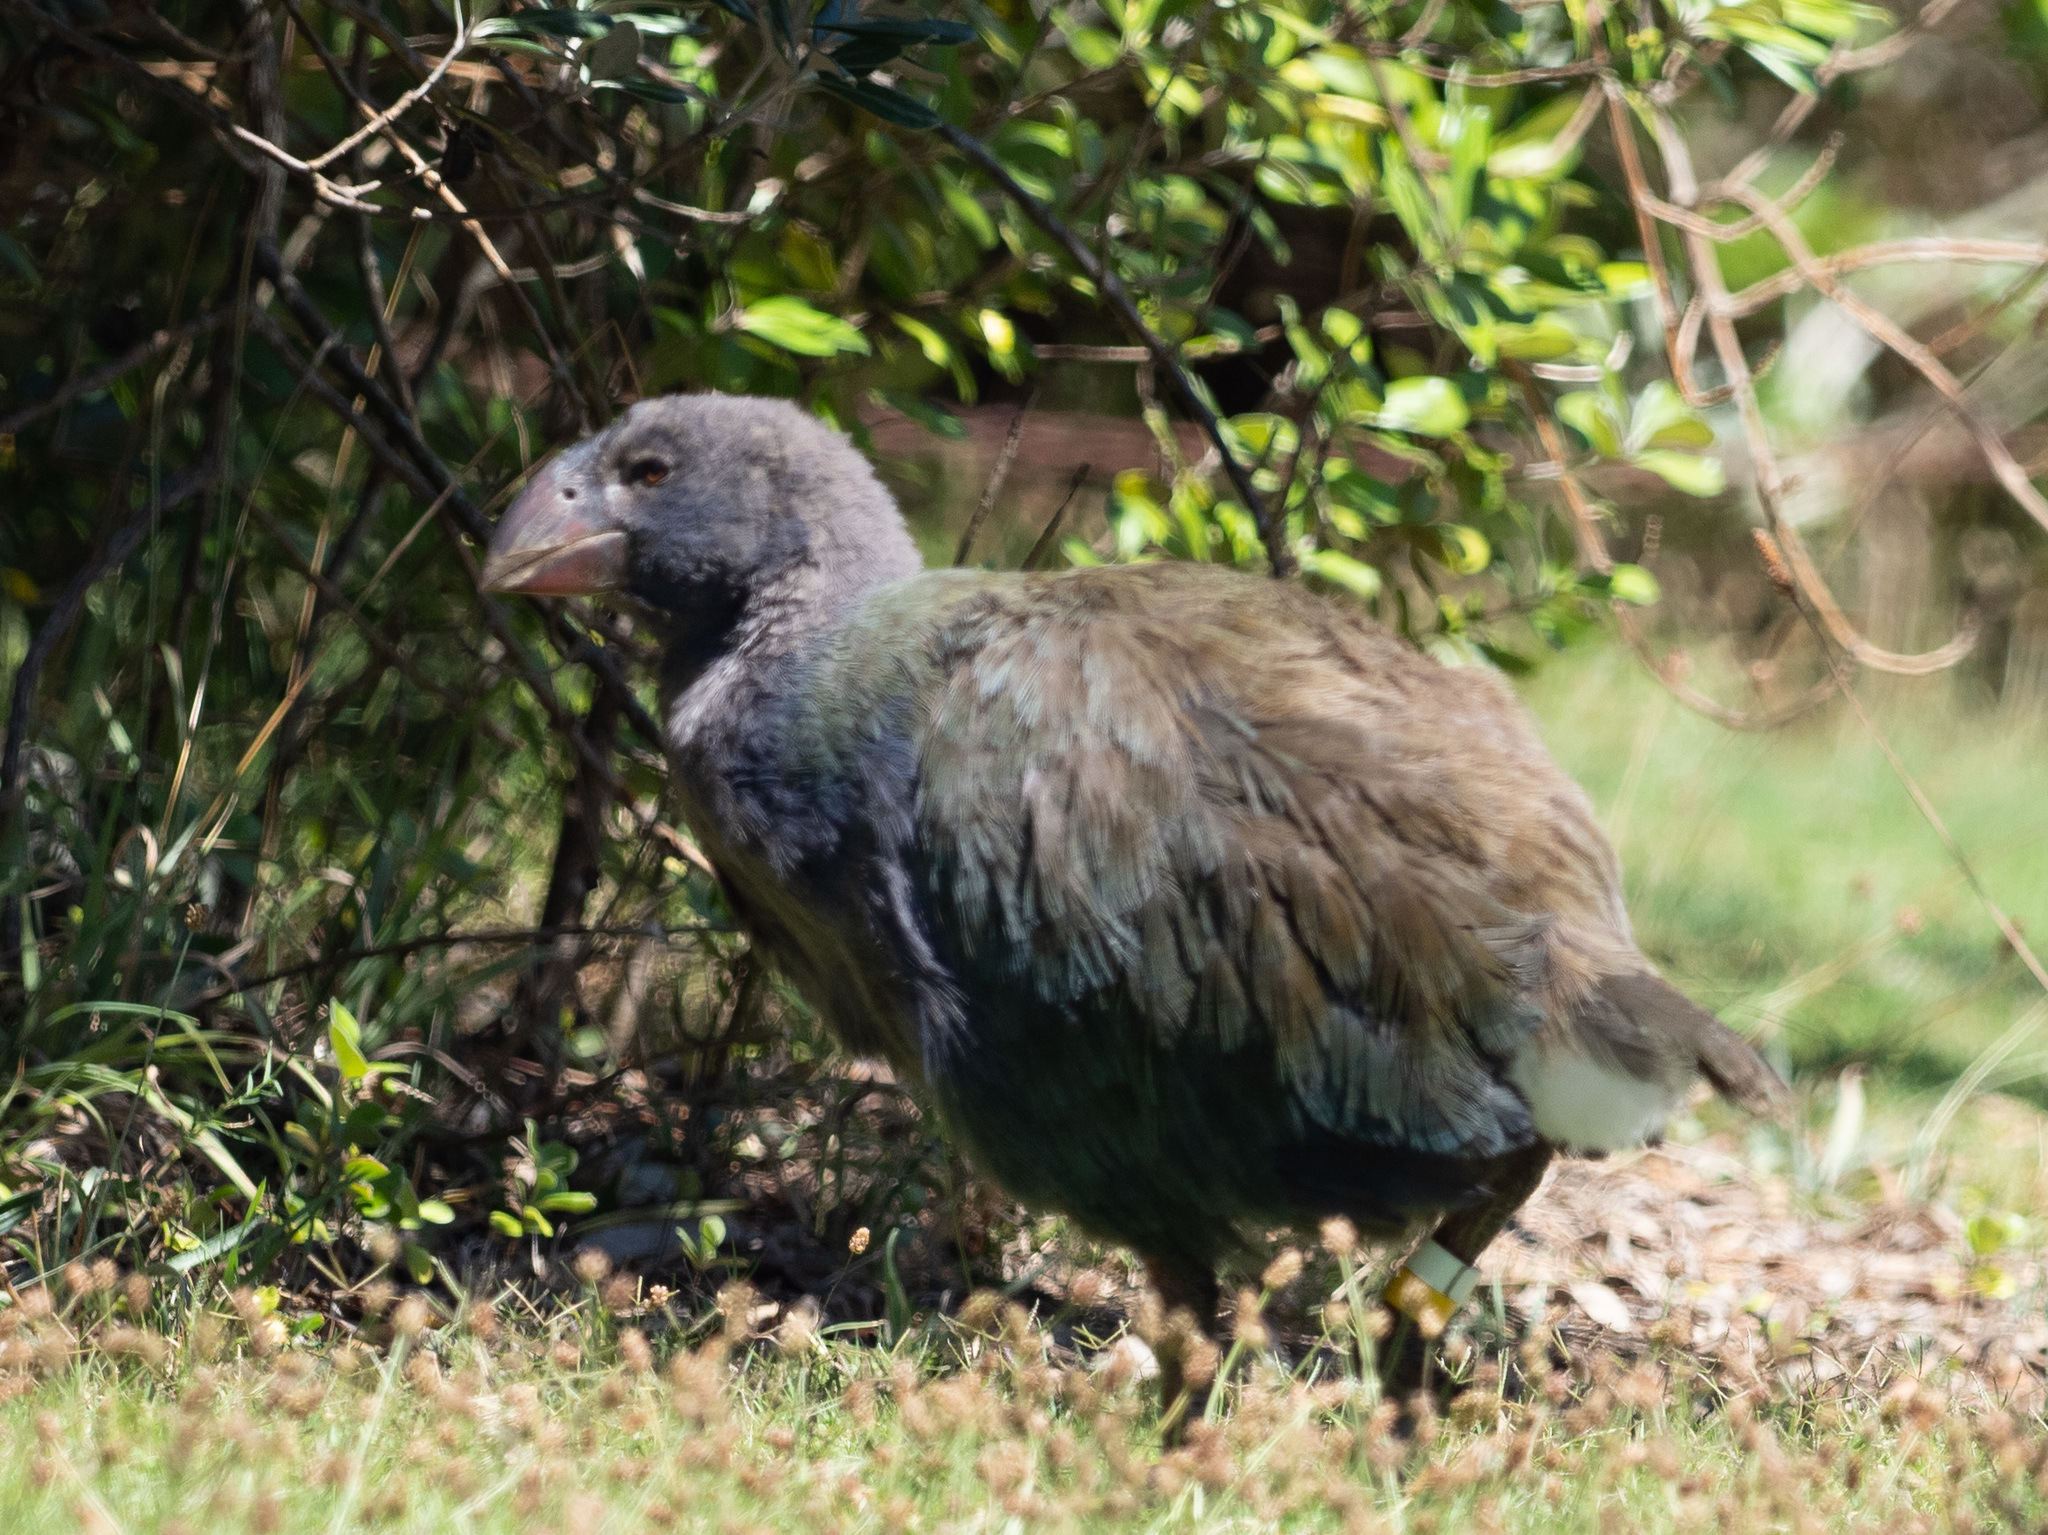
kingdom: Animalia
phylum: Chordata
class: Aves
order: Gruiformes
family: Rallidae
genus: Porphyrio
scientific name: Porphyrio hochstetteri
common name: South island takahe
